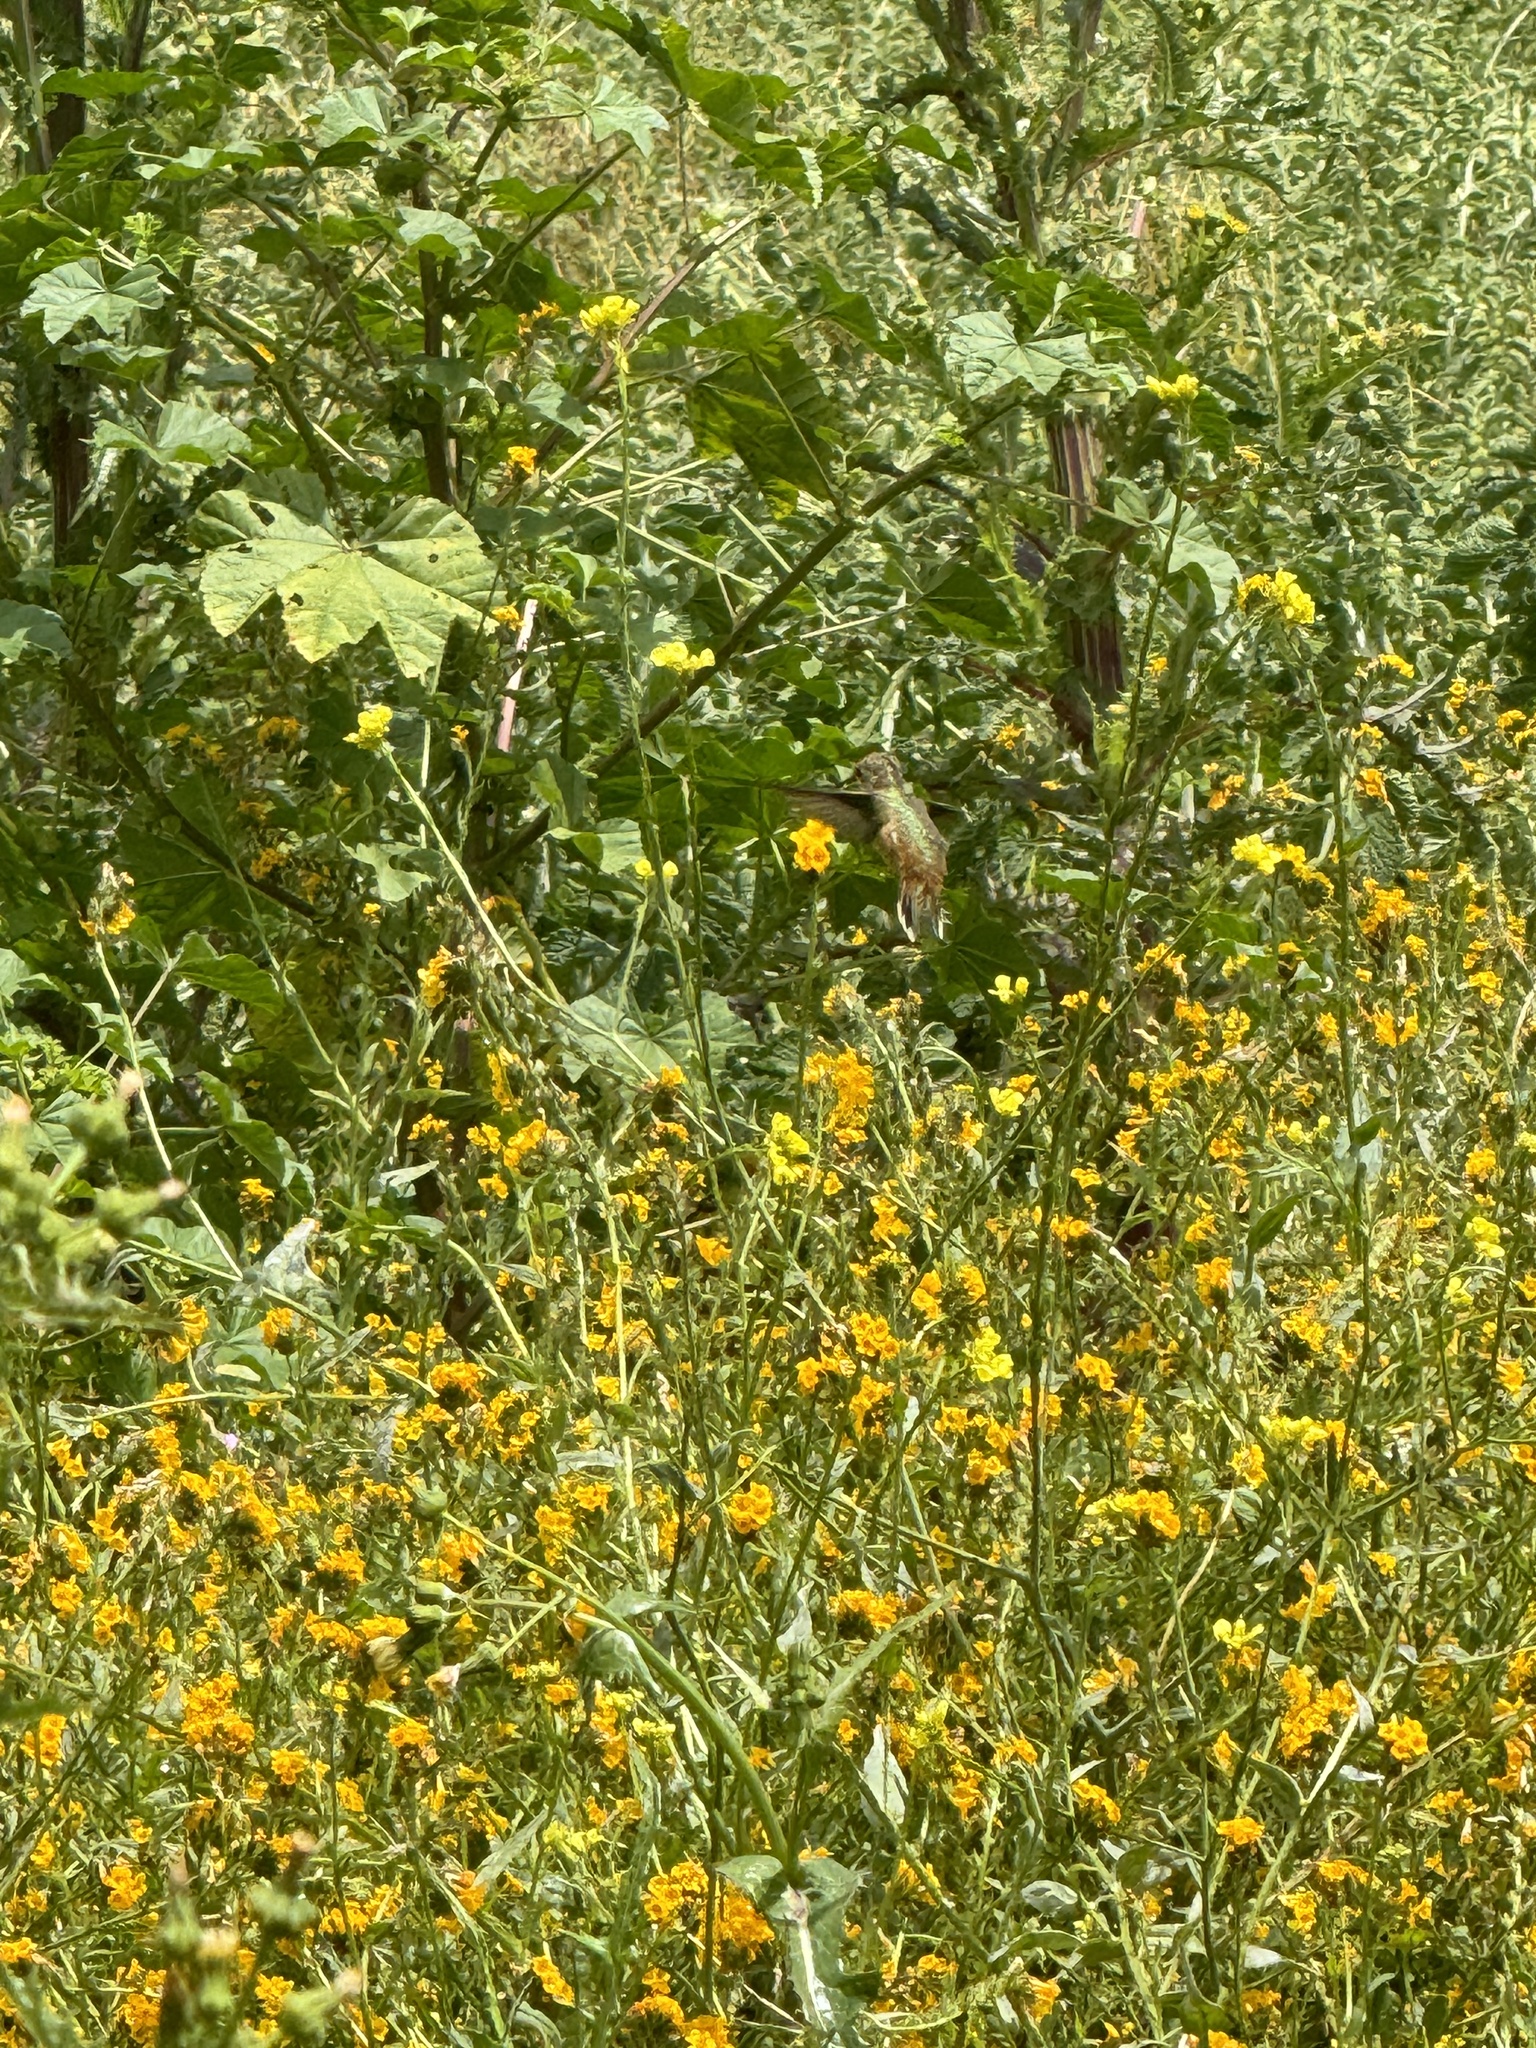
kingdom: Animalia
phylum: Chordata
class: Aves
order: Apodiformes
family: Trochilidae
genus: Selasphorus
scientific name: Selasphorus
